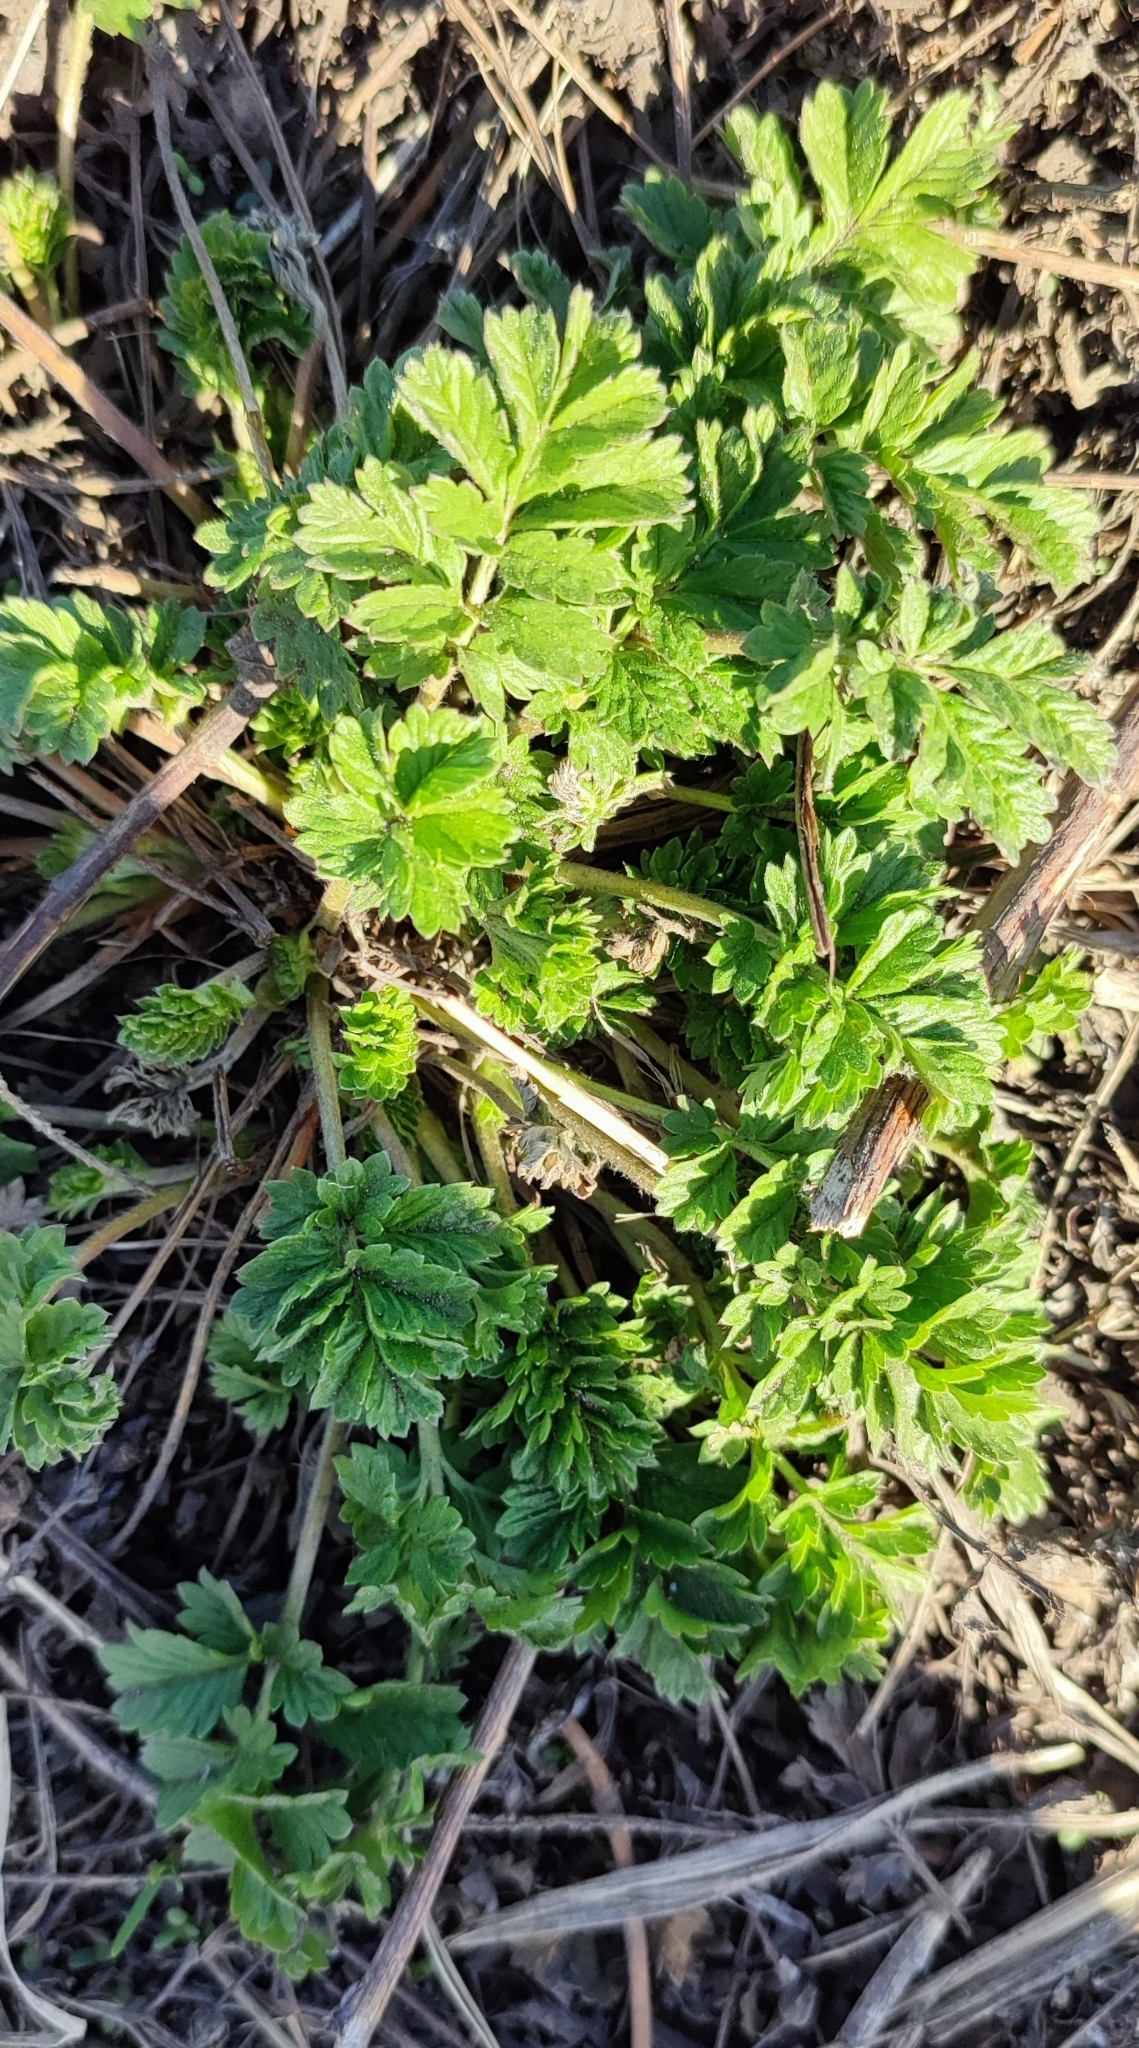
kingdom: Plantae
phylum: Tracheophyta
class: Magnoliopsida
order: Rosales
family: Rosaceae
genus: Potentilla
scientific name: Potentilla tobolensis
